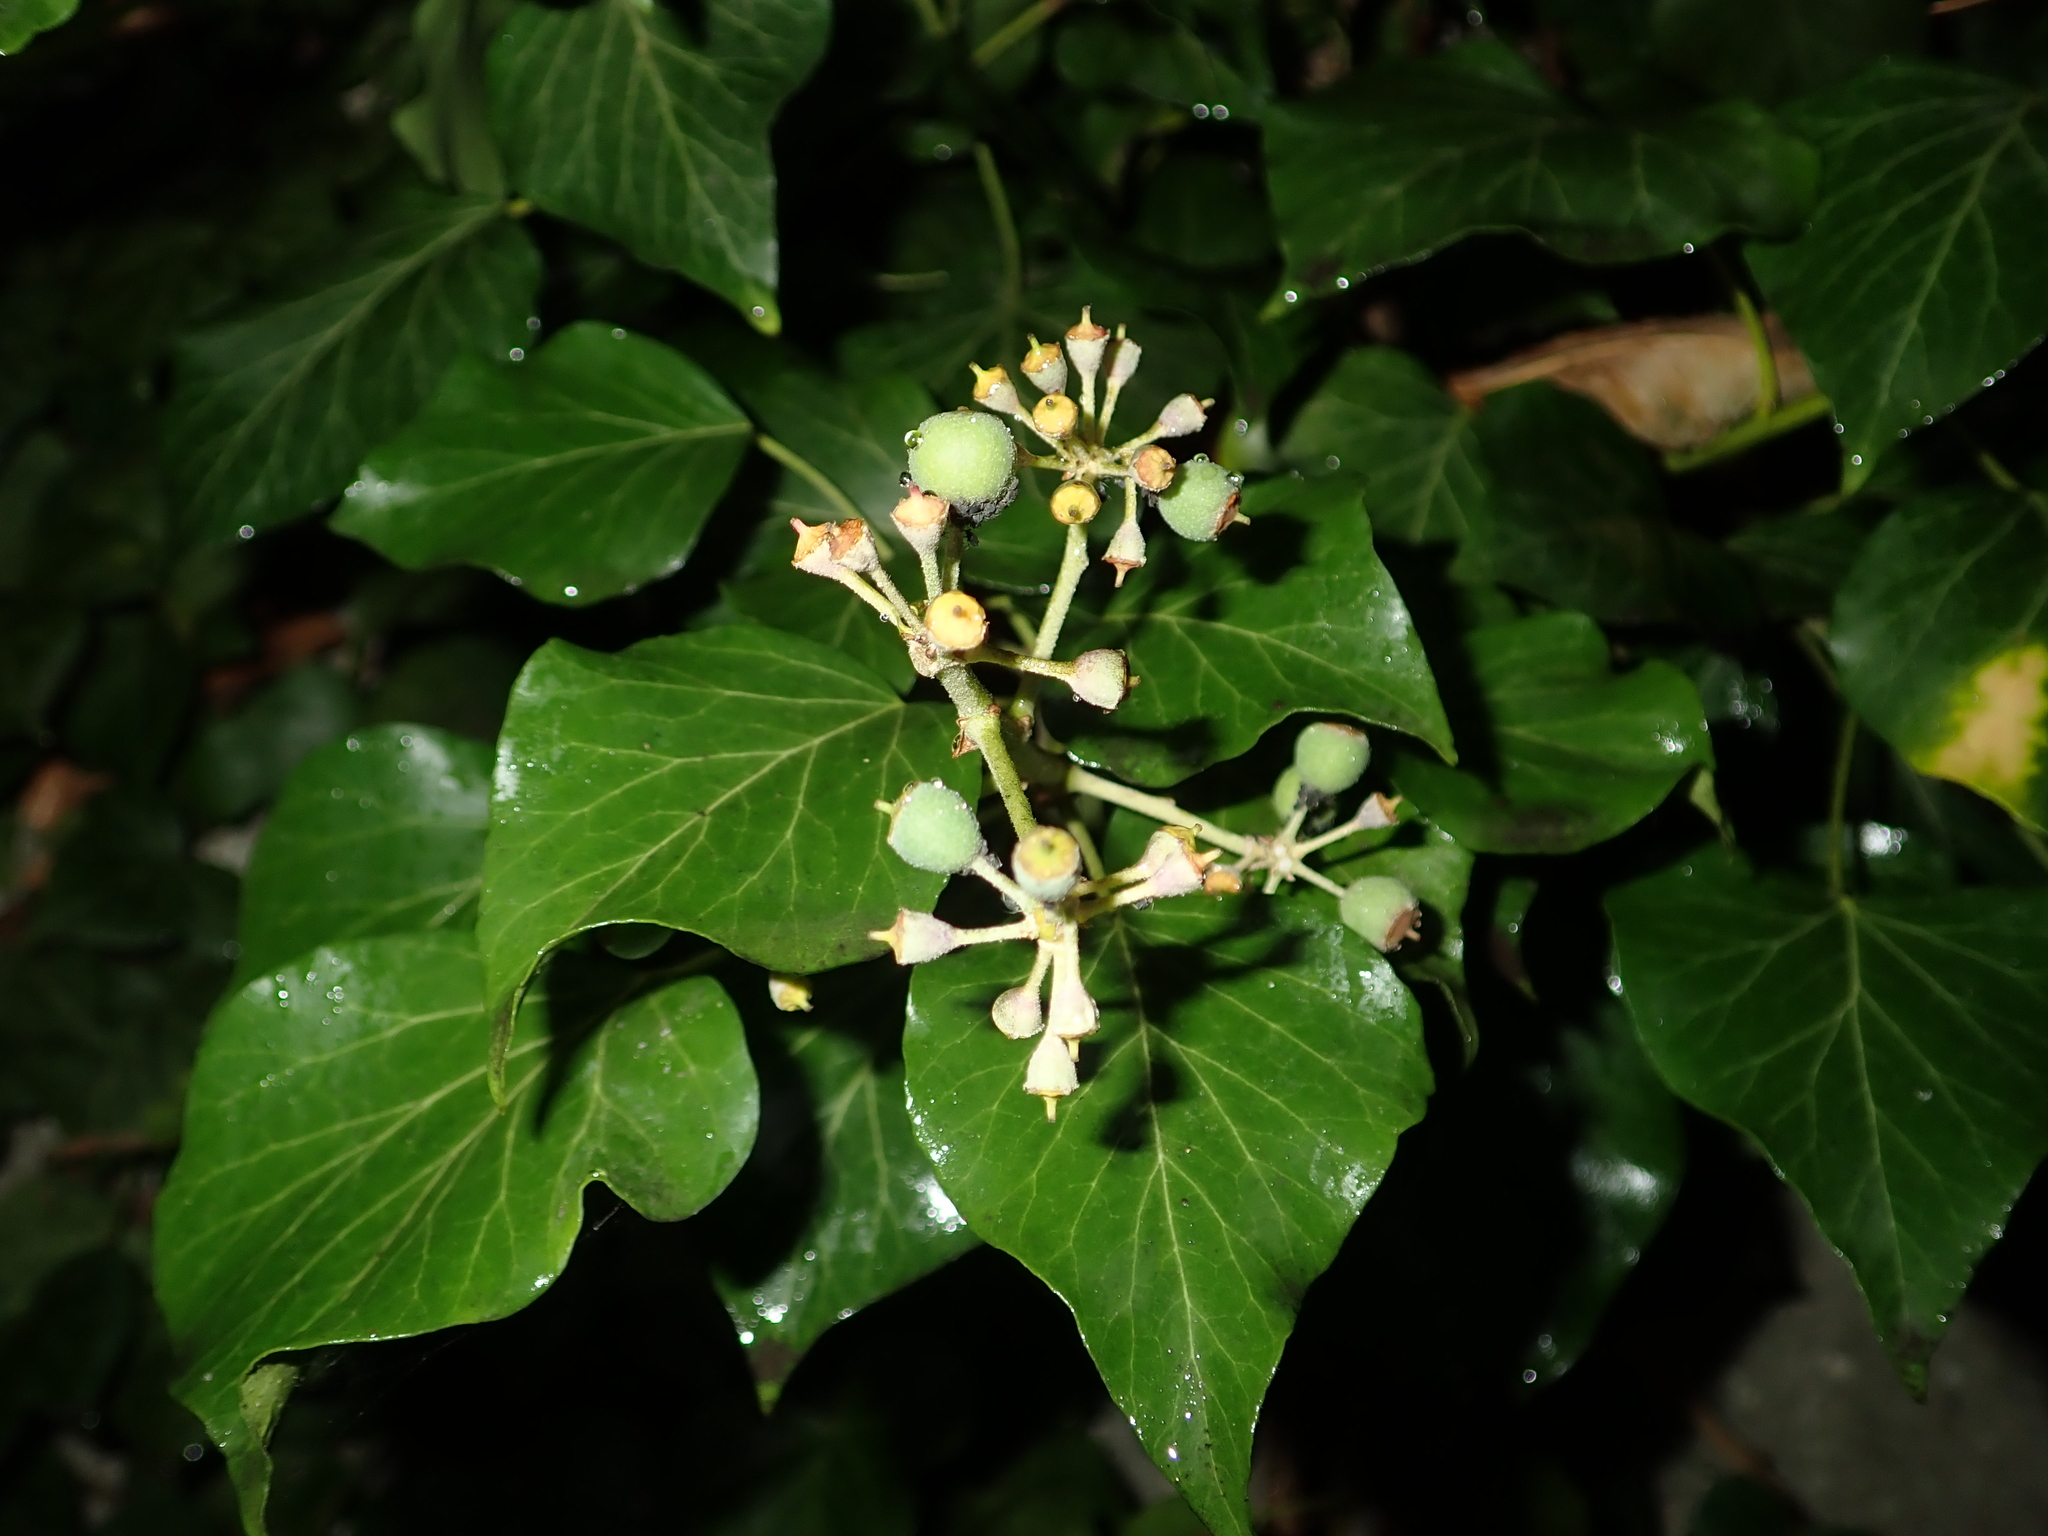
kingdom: Plantae
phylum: Tracheophyta
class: Magnoliopsida
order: Apiales
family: Araliaceae
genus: Hedera
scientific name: Hedera helix
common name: Ivy
